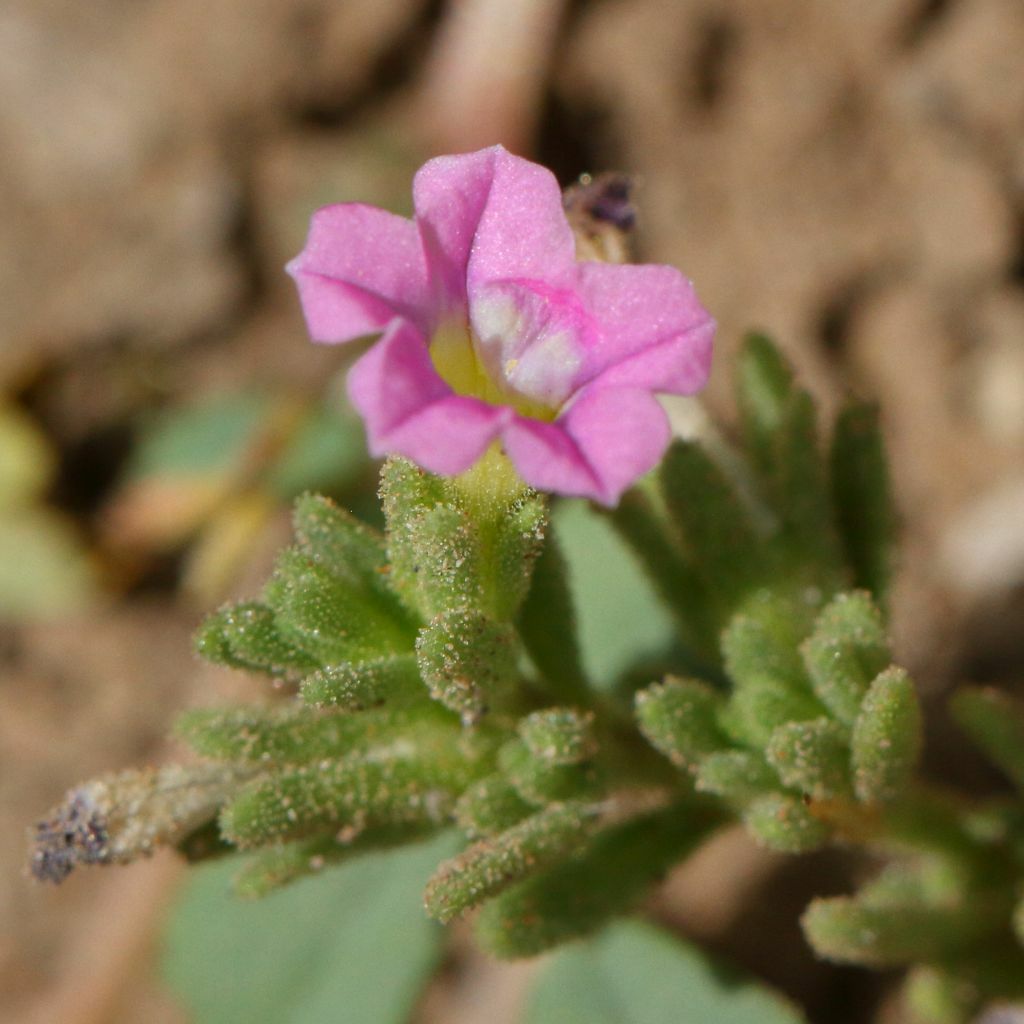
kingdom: Plantae
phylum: Tracheophyta
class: Magnoliopsida
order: Solanales
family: Solanaceae
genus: Calibrachoa
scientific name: Calibrachoa parviflora
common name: Seaside petunia
